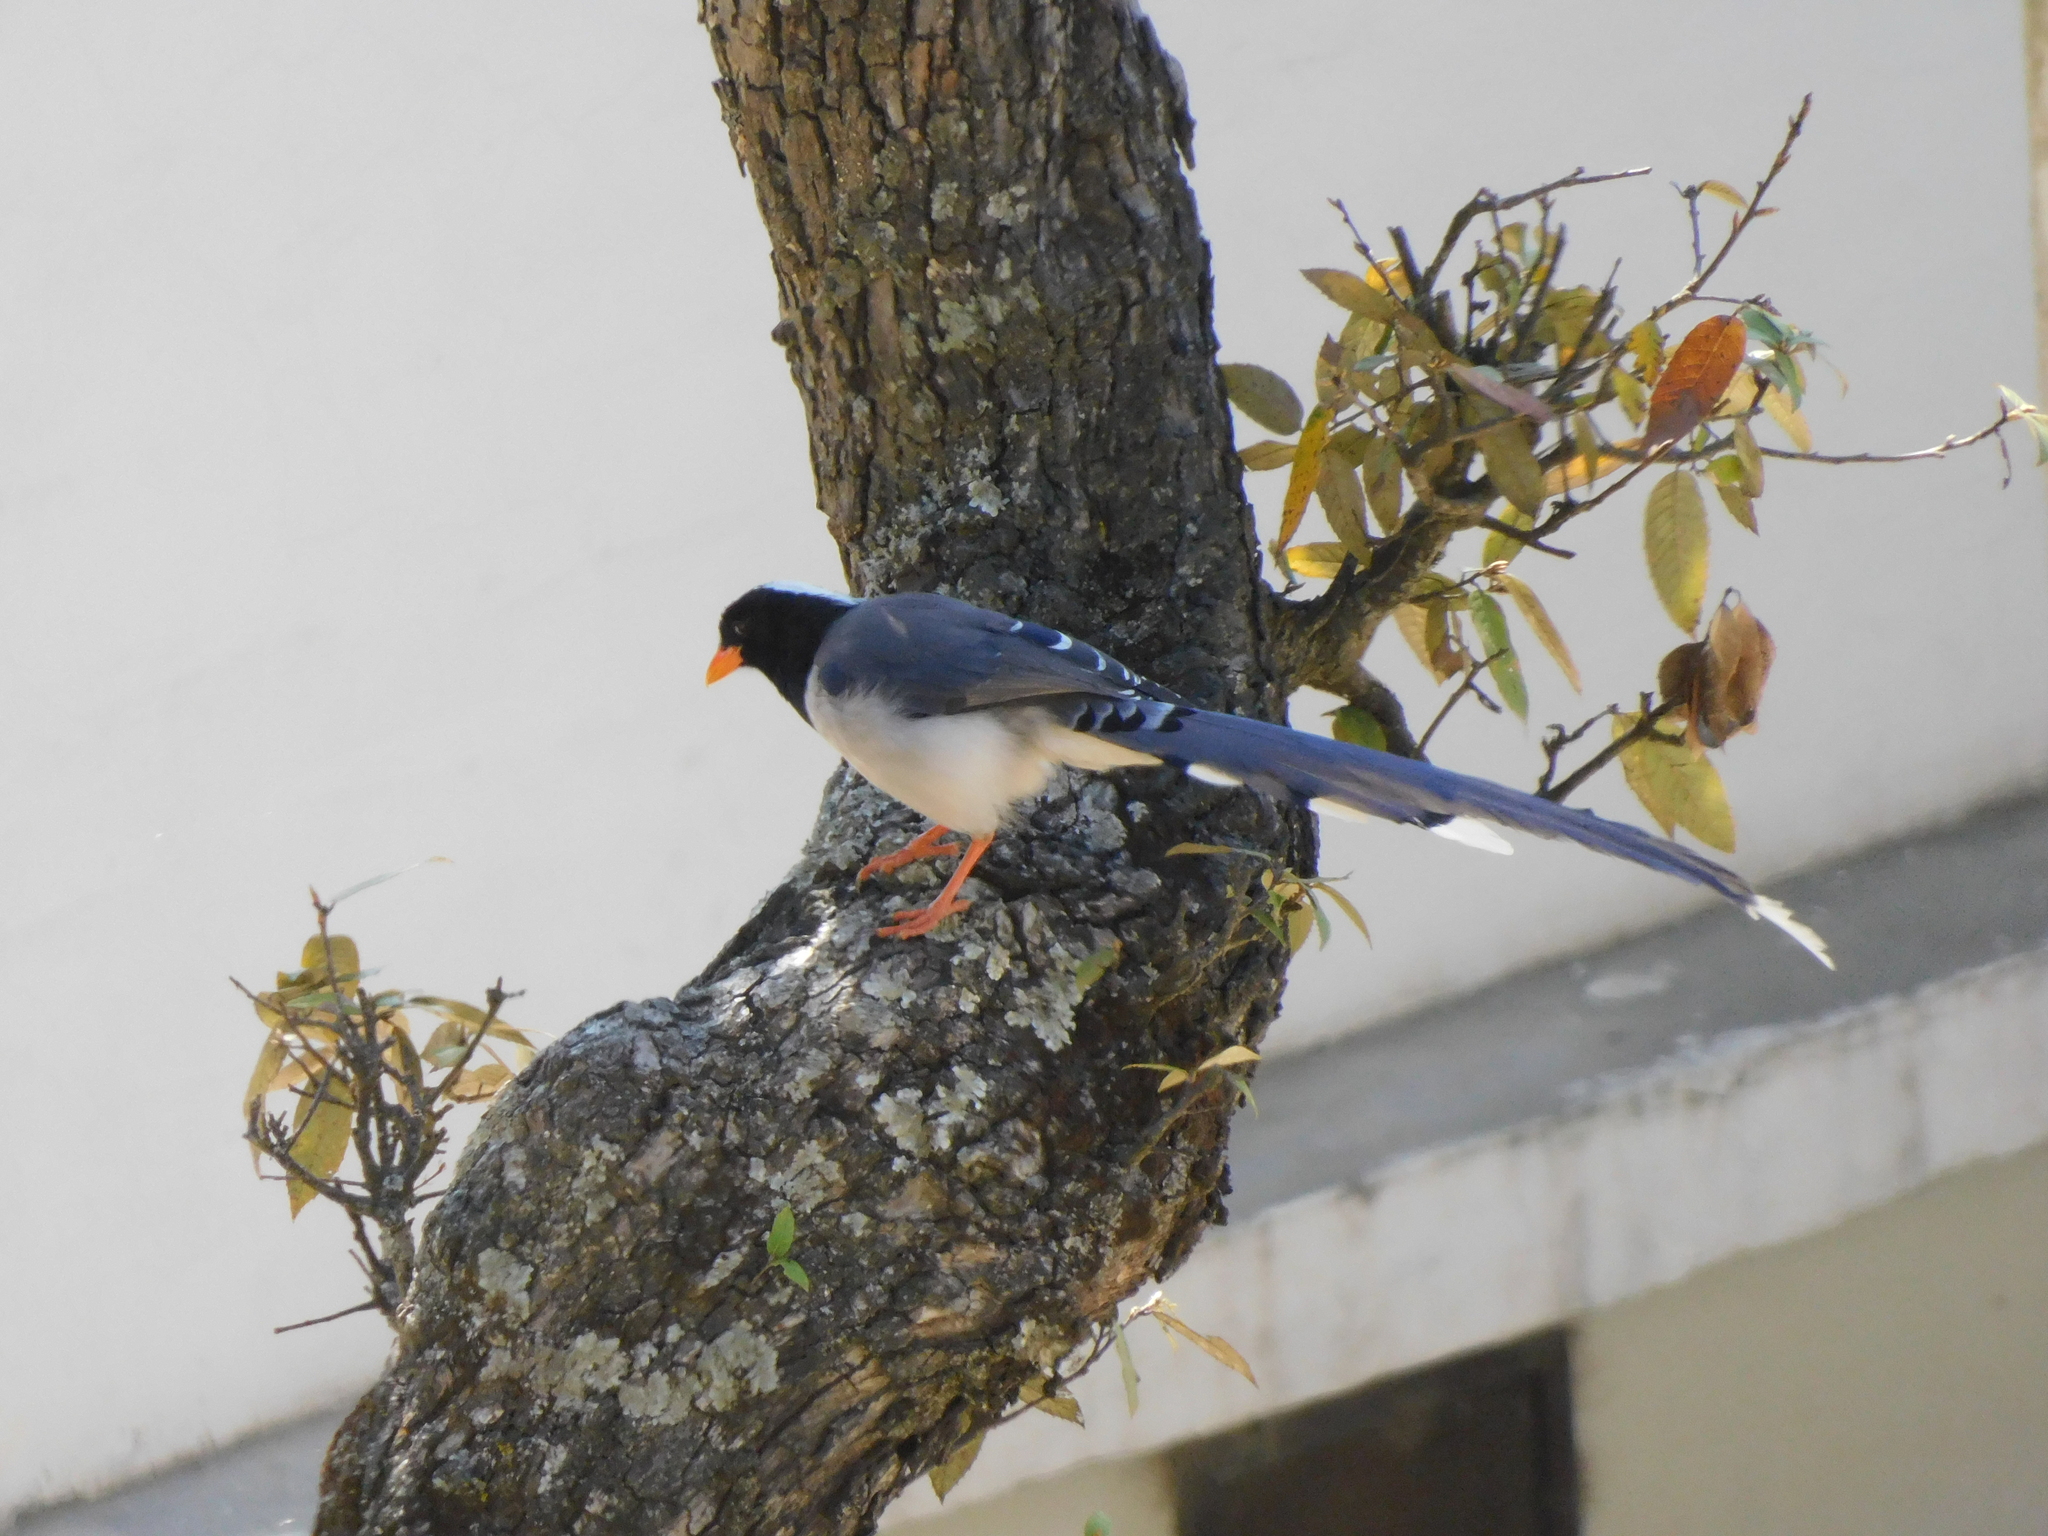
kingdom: Animalia
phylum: Chordata
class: Aves
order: Passeriformes
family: Corvidae
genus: Urocissa
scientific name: Urocissa erythroryncha
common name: Red-billed blue magpie
